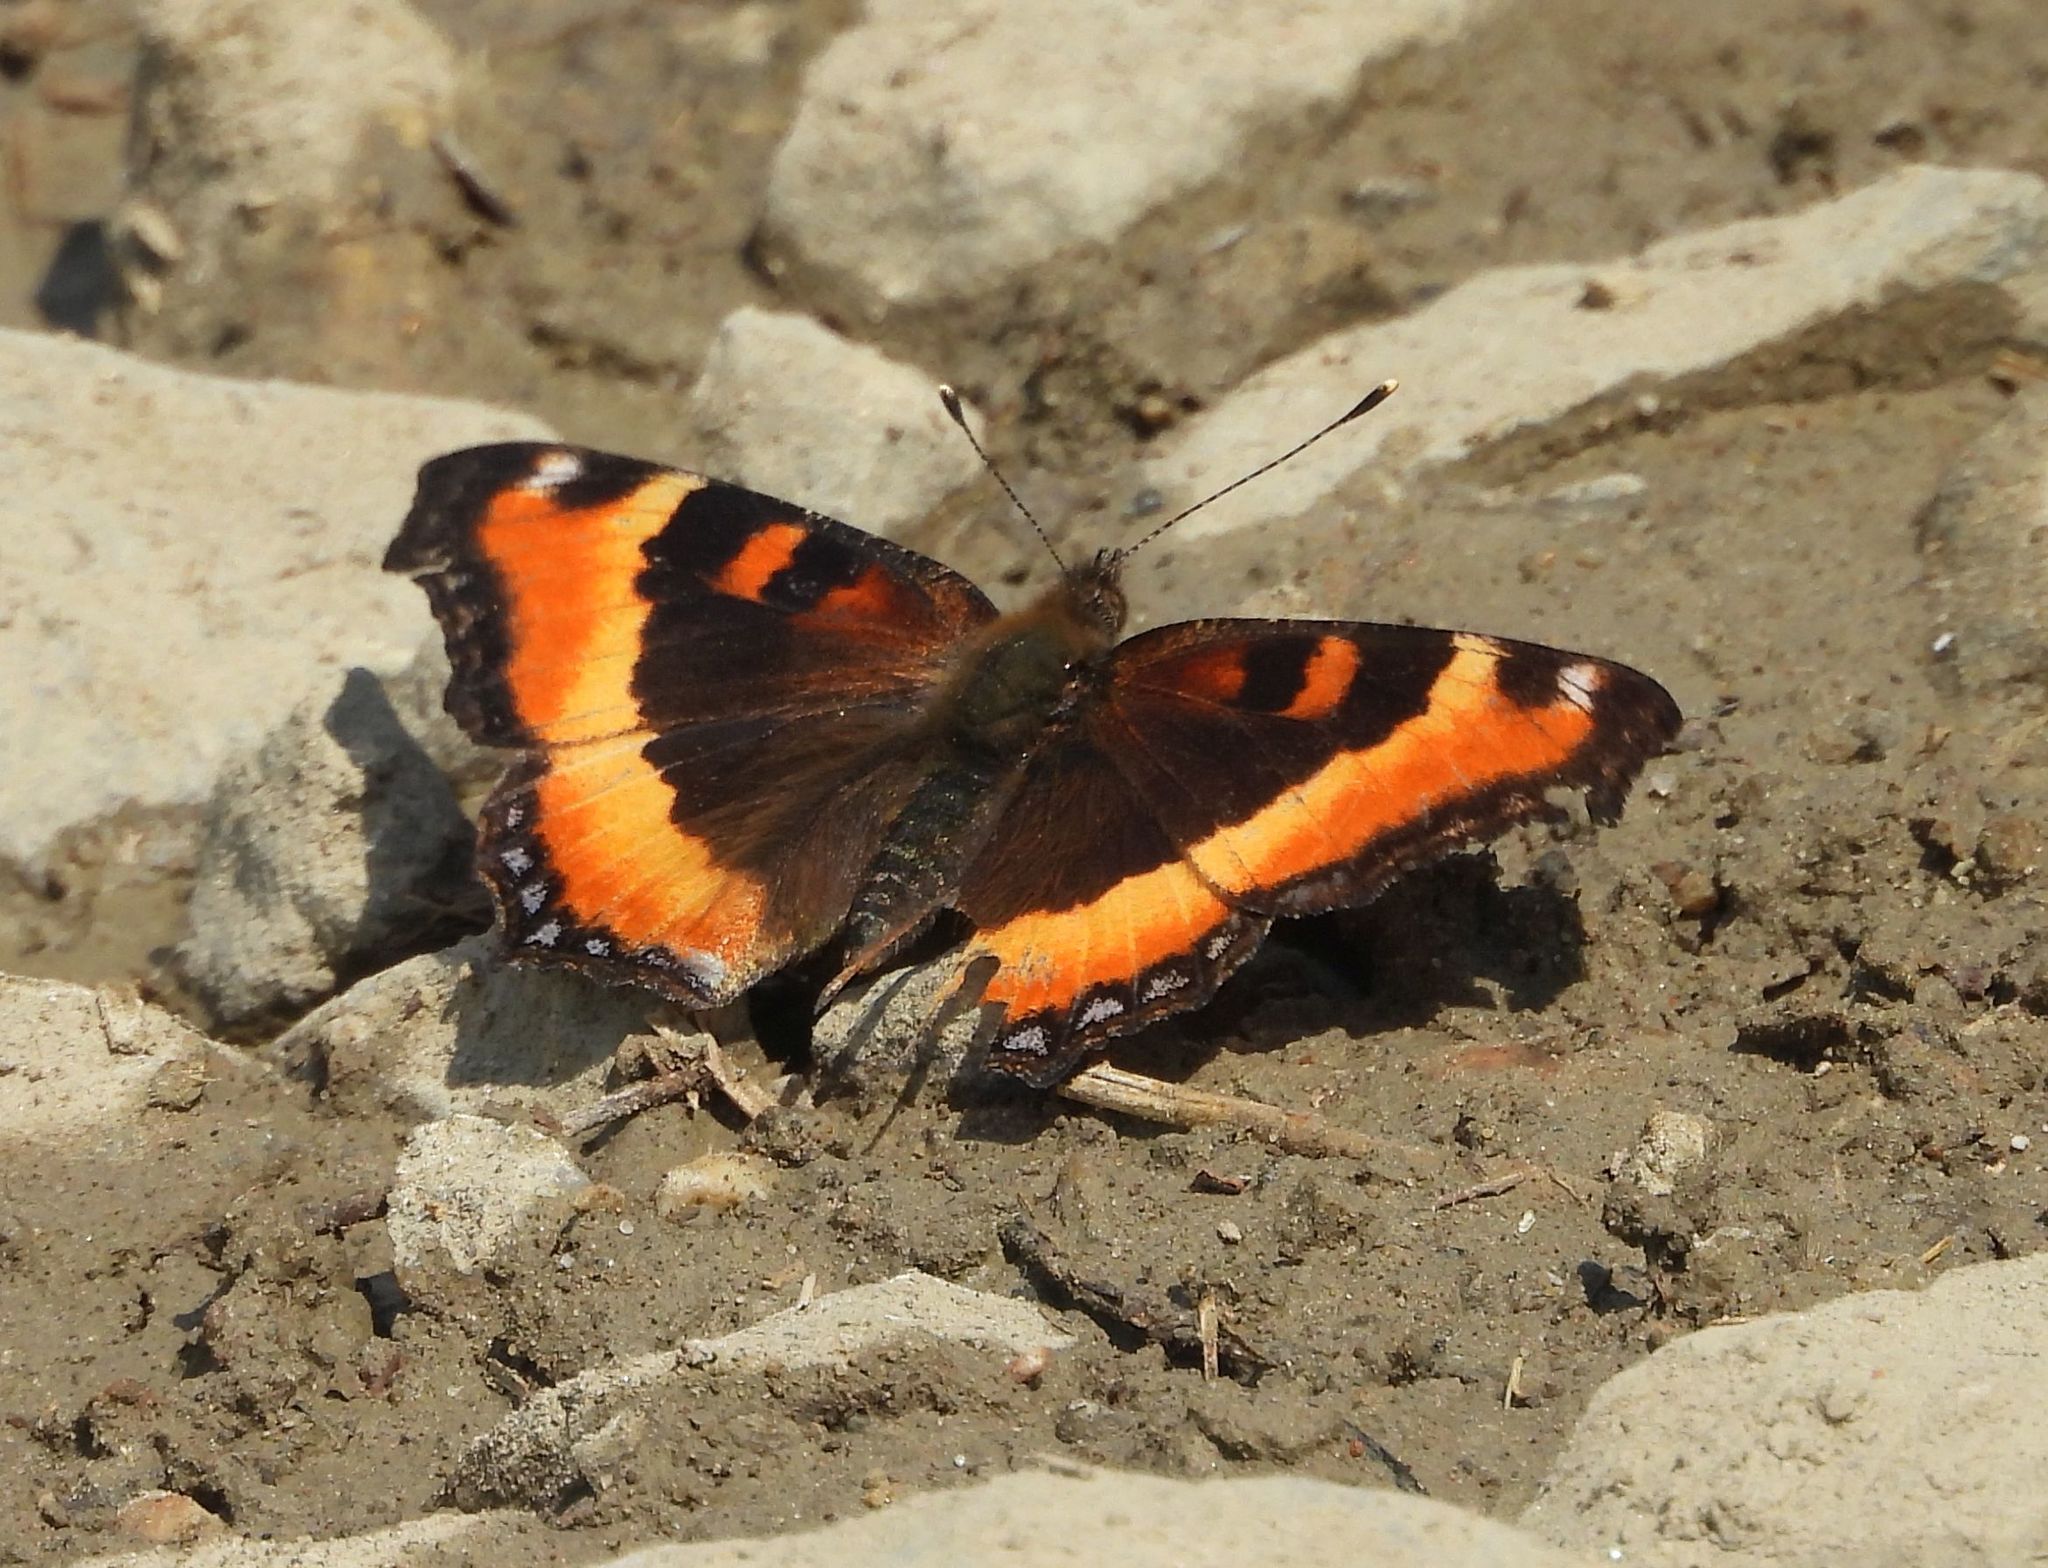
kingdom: Animalia
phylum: Arthropoda
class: Insecta
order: Lepidoptera
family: Nymphalidae
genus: Aglais
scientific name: Aglais milberti
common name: Milbert's tortoiseshell
